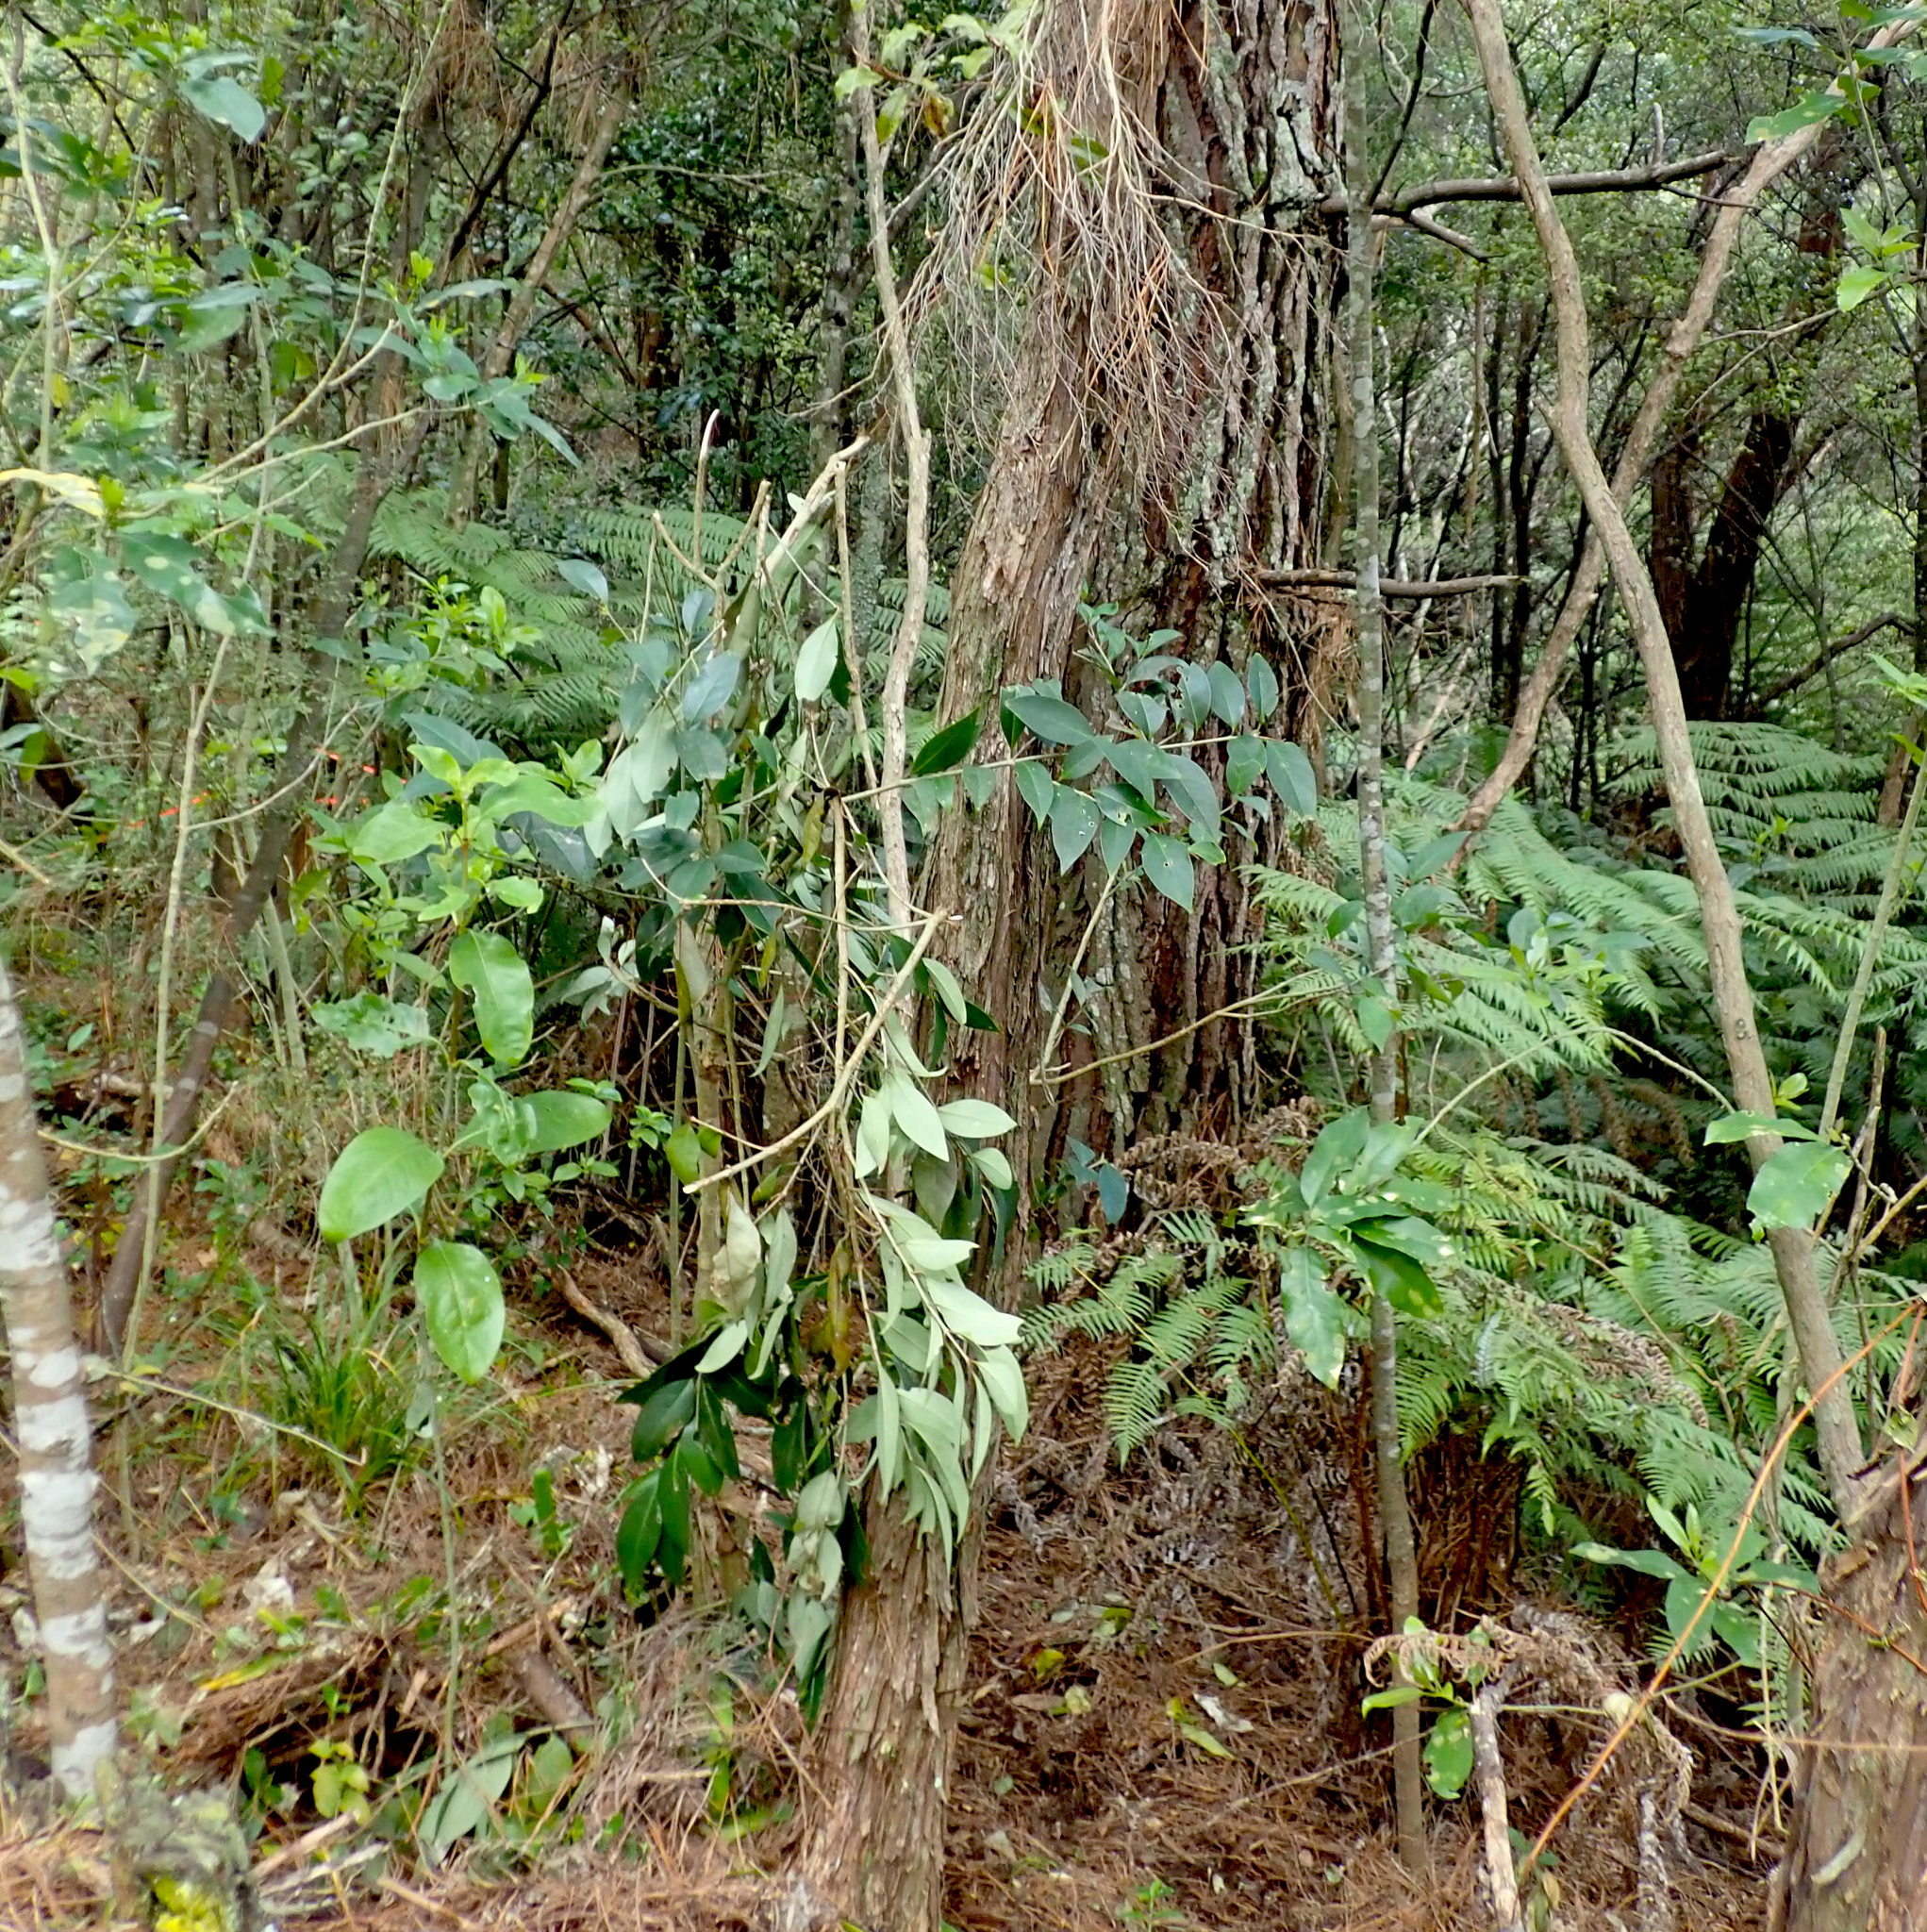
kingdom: Plantae
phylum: Tracheophyta
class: Magnoliopsida
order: Lamiales
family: Oleaceae
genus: Ligustrum
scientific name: Ligustrum lucidum
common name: Glossy privet
